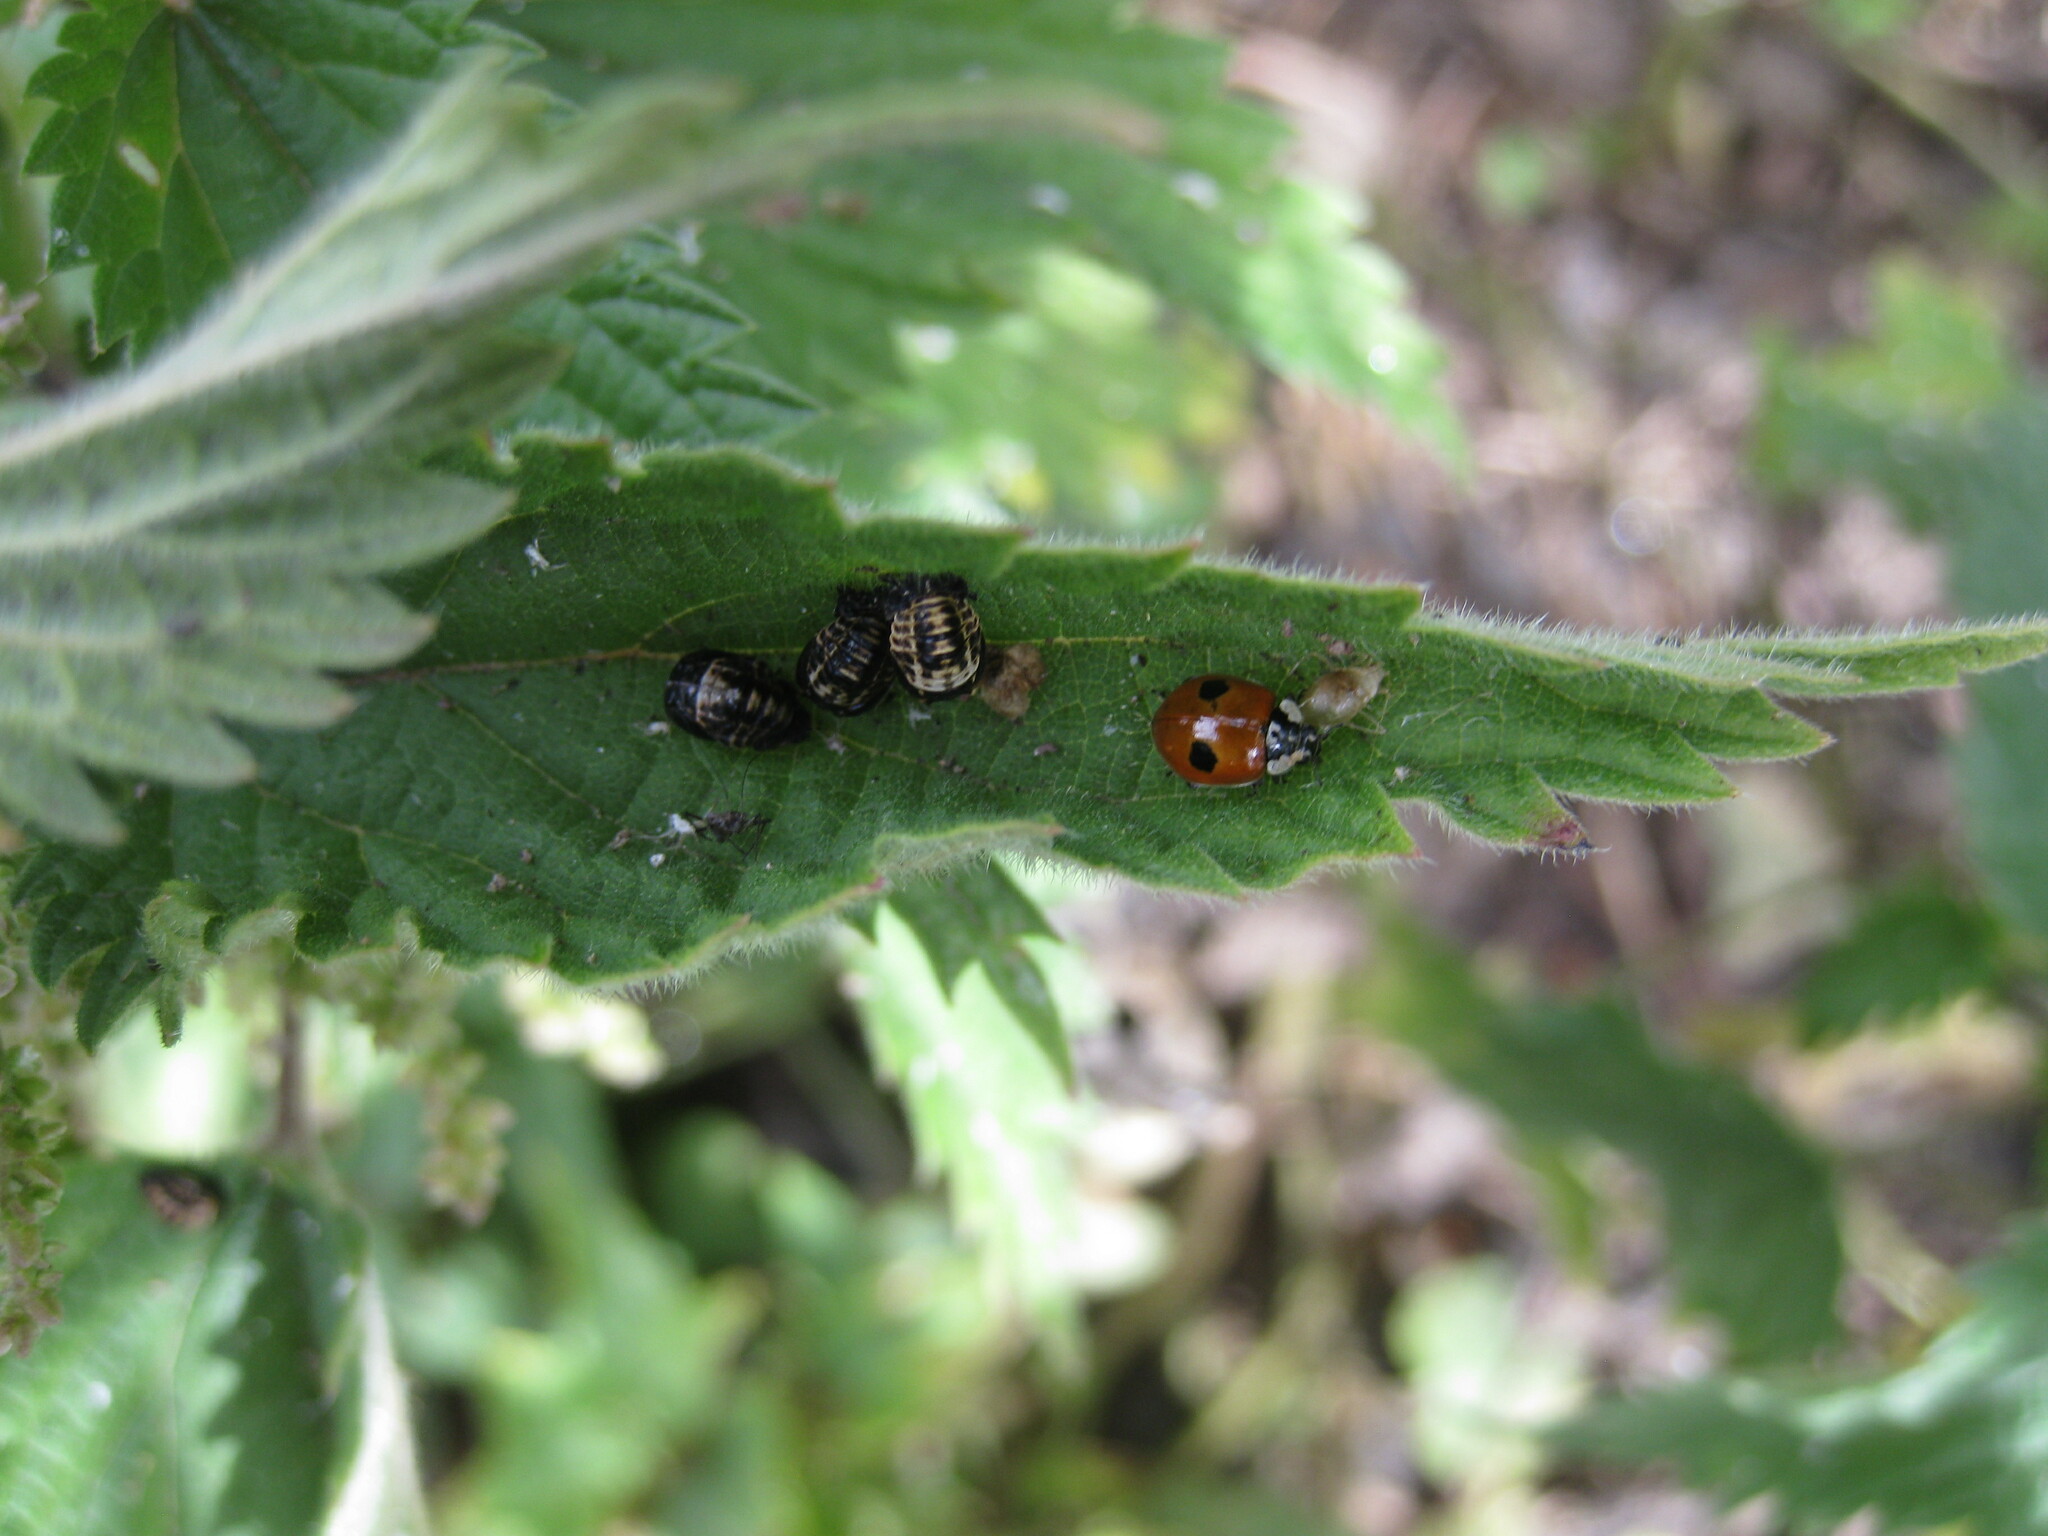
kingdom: Animalia
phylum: Arthropoda
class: Insecta
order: Coleoptera
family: Coccinellidae
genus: Adalia
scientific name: Adalia bipunctata
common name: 2-spot ladybird
